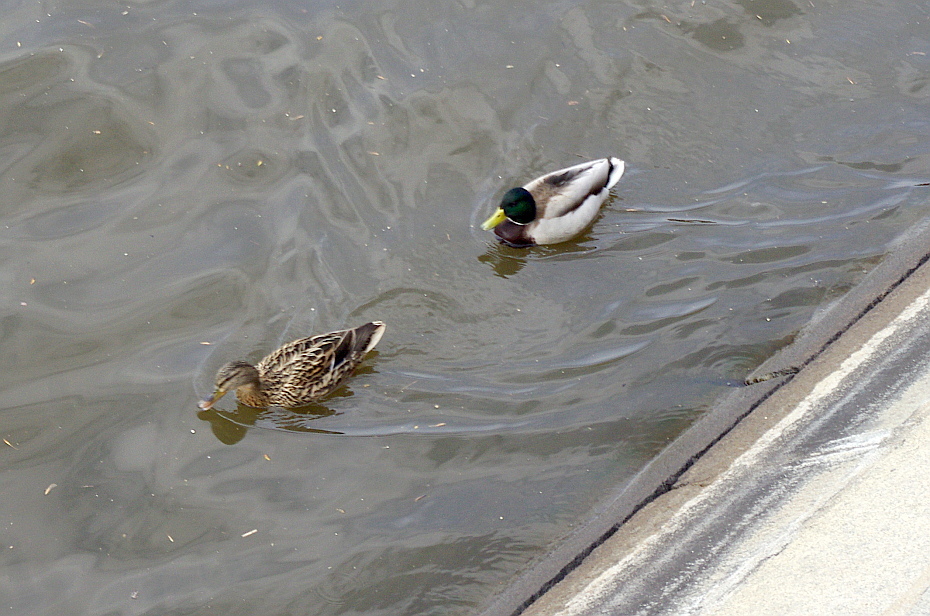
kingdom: Animalia
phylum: Chordata
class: Aves
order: Anseriformes
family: Anatidae
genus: Anas
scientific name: Anas platyrhynchos
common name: Mallard
